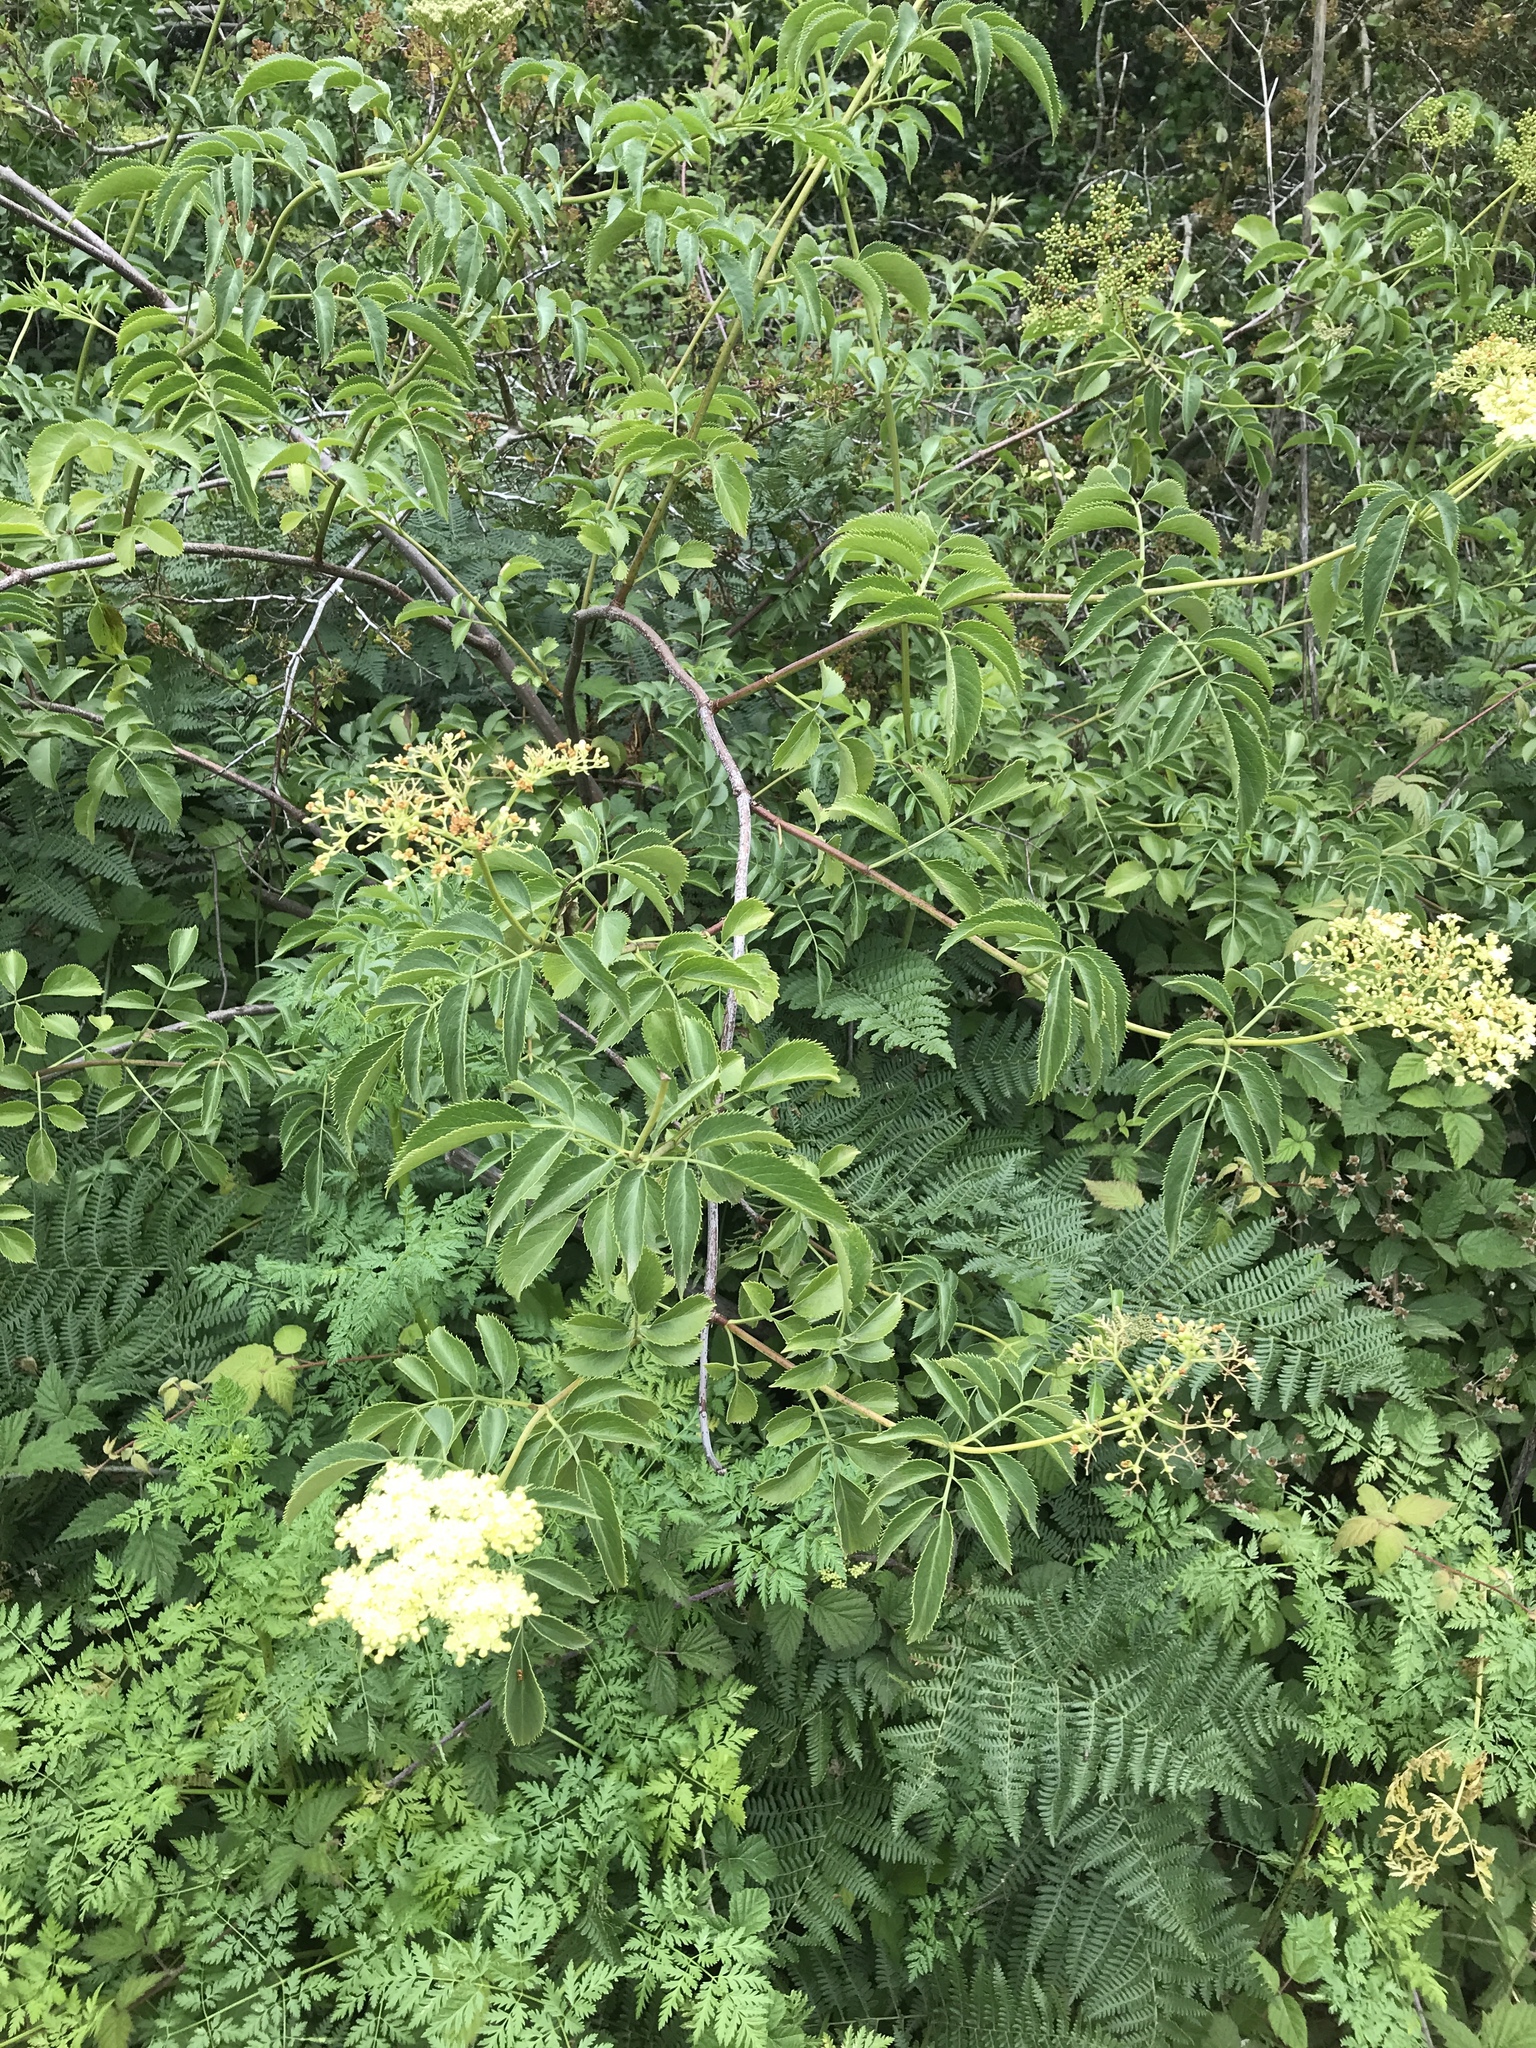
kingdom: Plantae
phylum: Tracheophyta
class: Magnoliopsida
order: Dipsacales
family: Viburnaceae
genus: Sambucus
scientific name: Sambucus cerulea
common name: Blue elder
